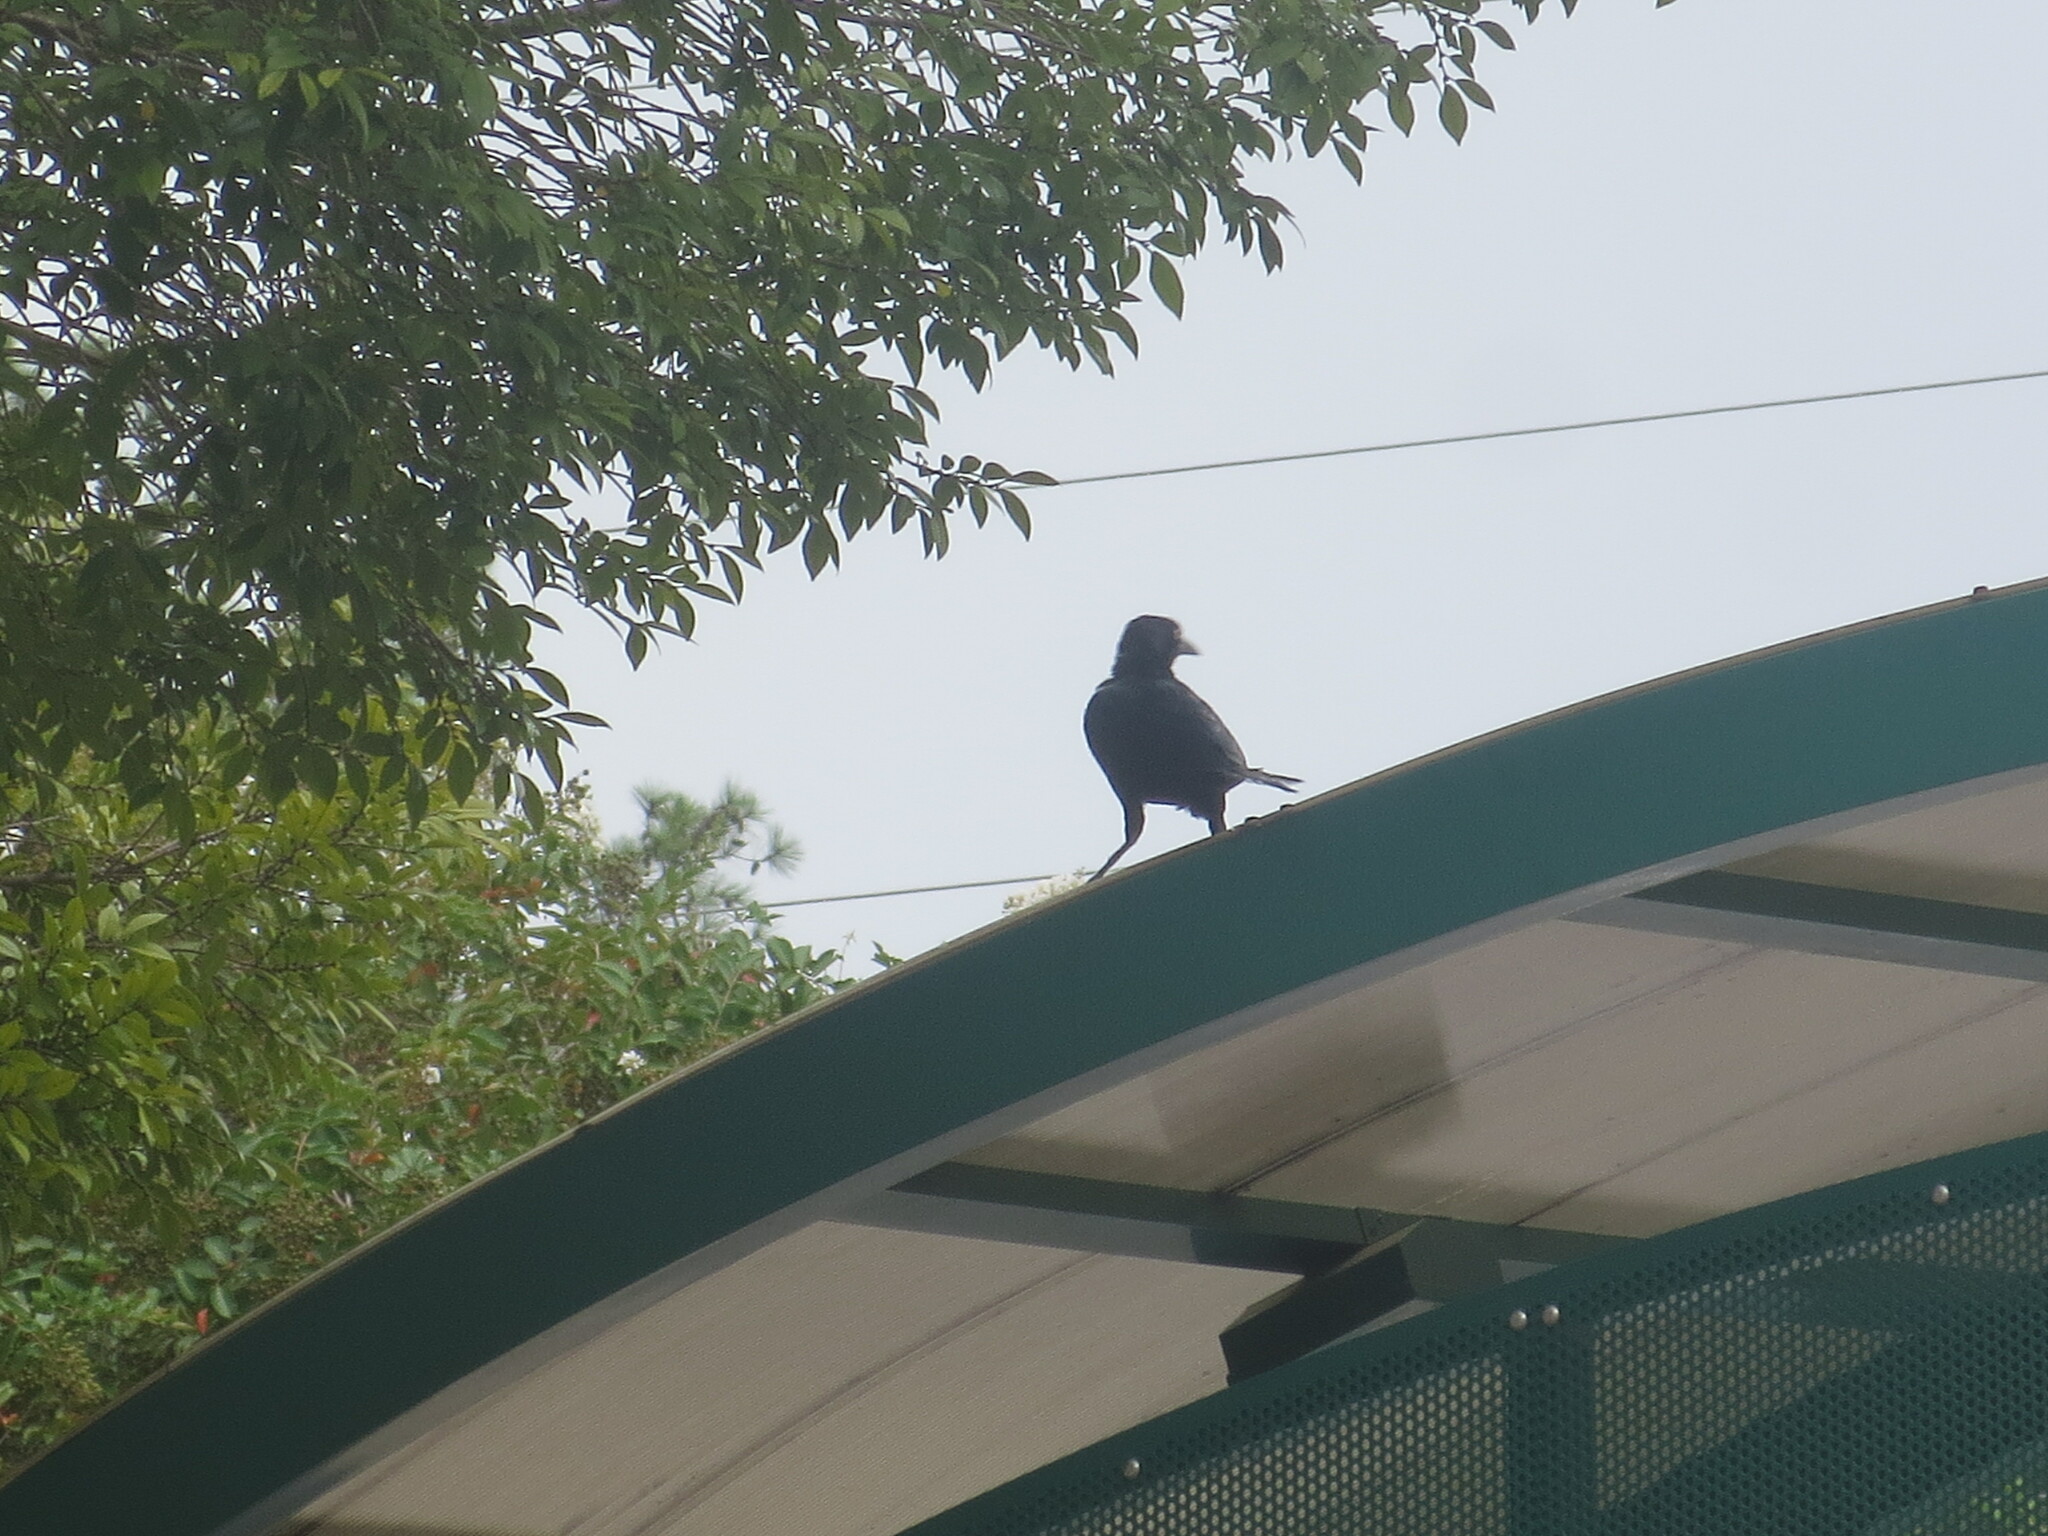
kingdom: Animalia
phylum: Chordata
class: Aves
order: Passeriformes
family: Icteridae
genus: Quiscalus
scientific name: Quiscalus major
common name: Boat-tailed grackle
